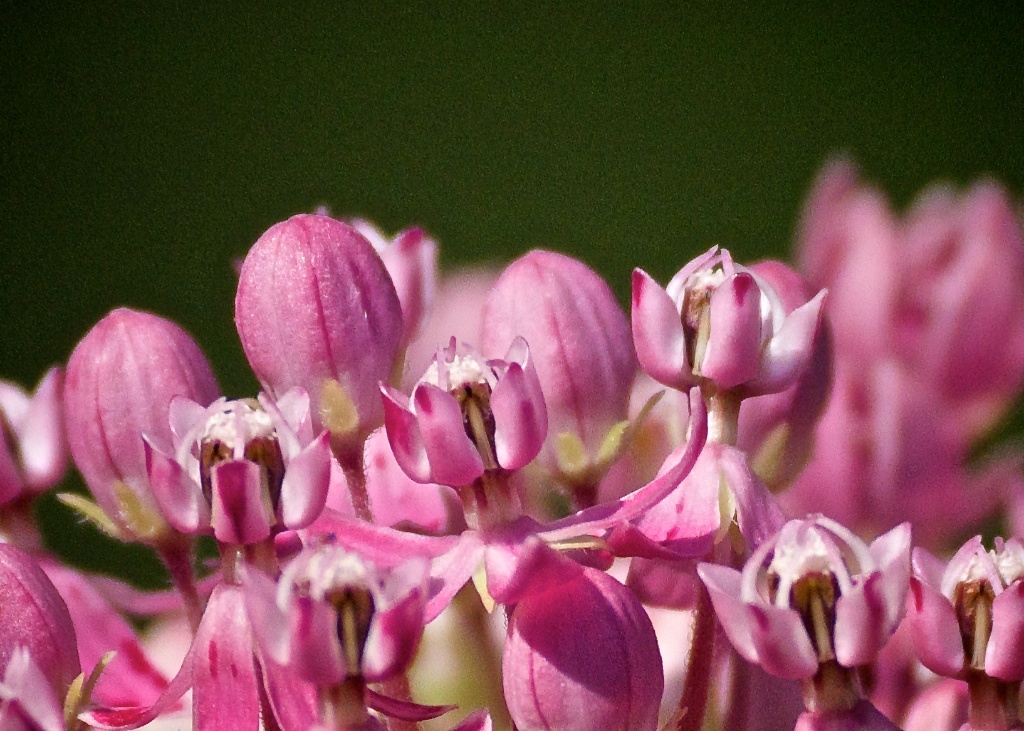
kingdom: Plantae
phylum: Tracheophyta
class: Magnoliopsida
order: Gentianales
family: Apocynaceae
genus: Asclepias
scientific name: Asclepias incarnata
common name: Swamp milkweed
